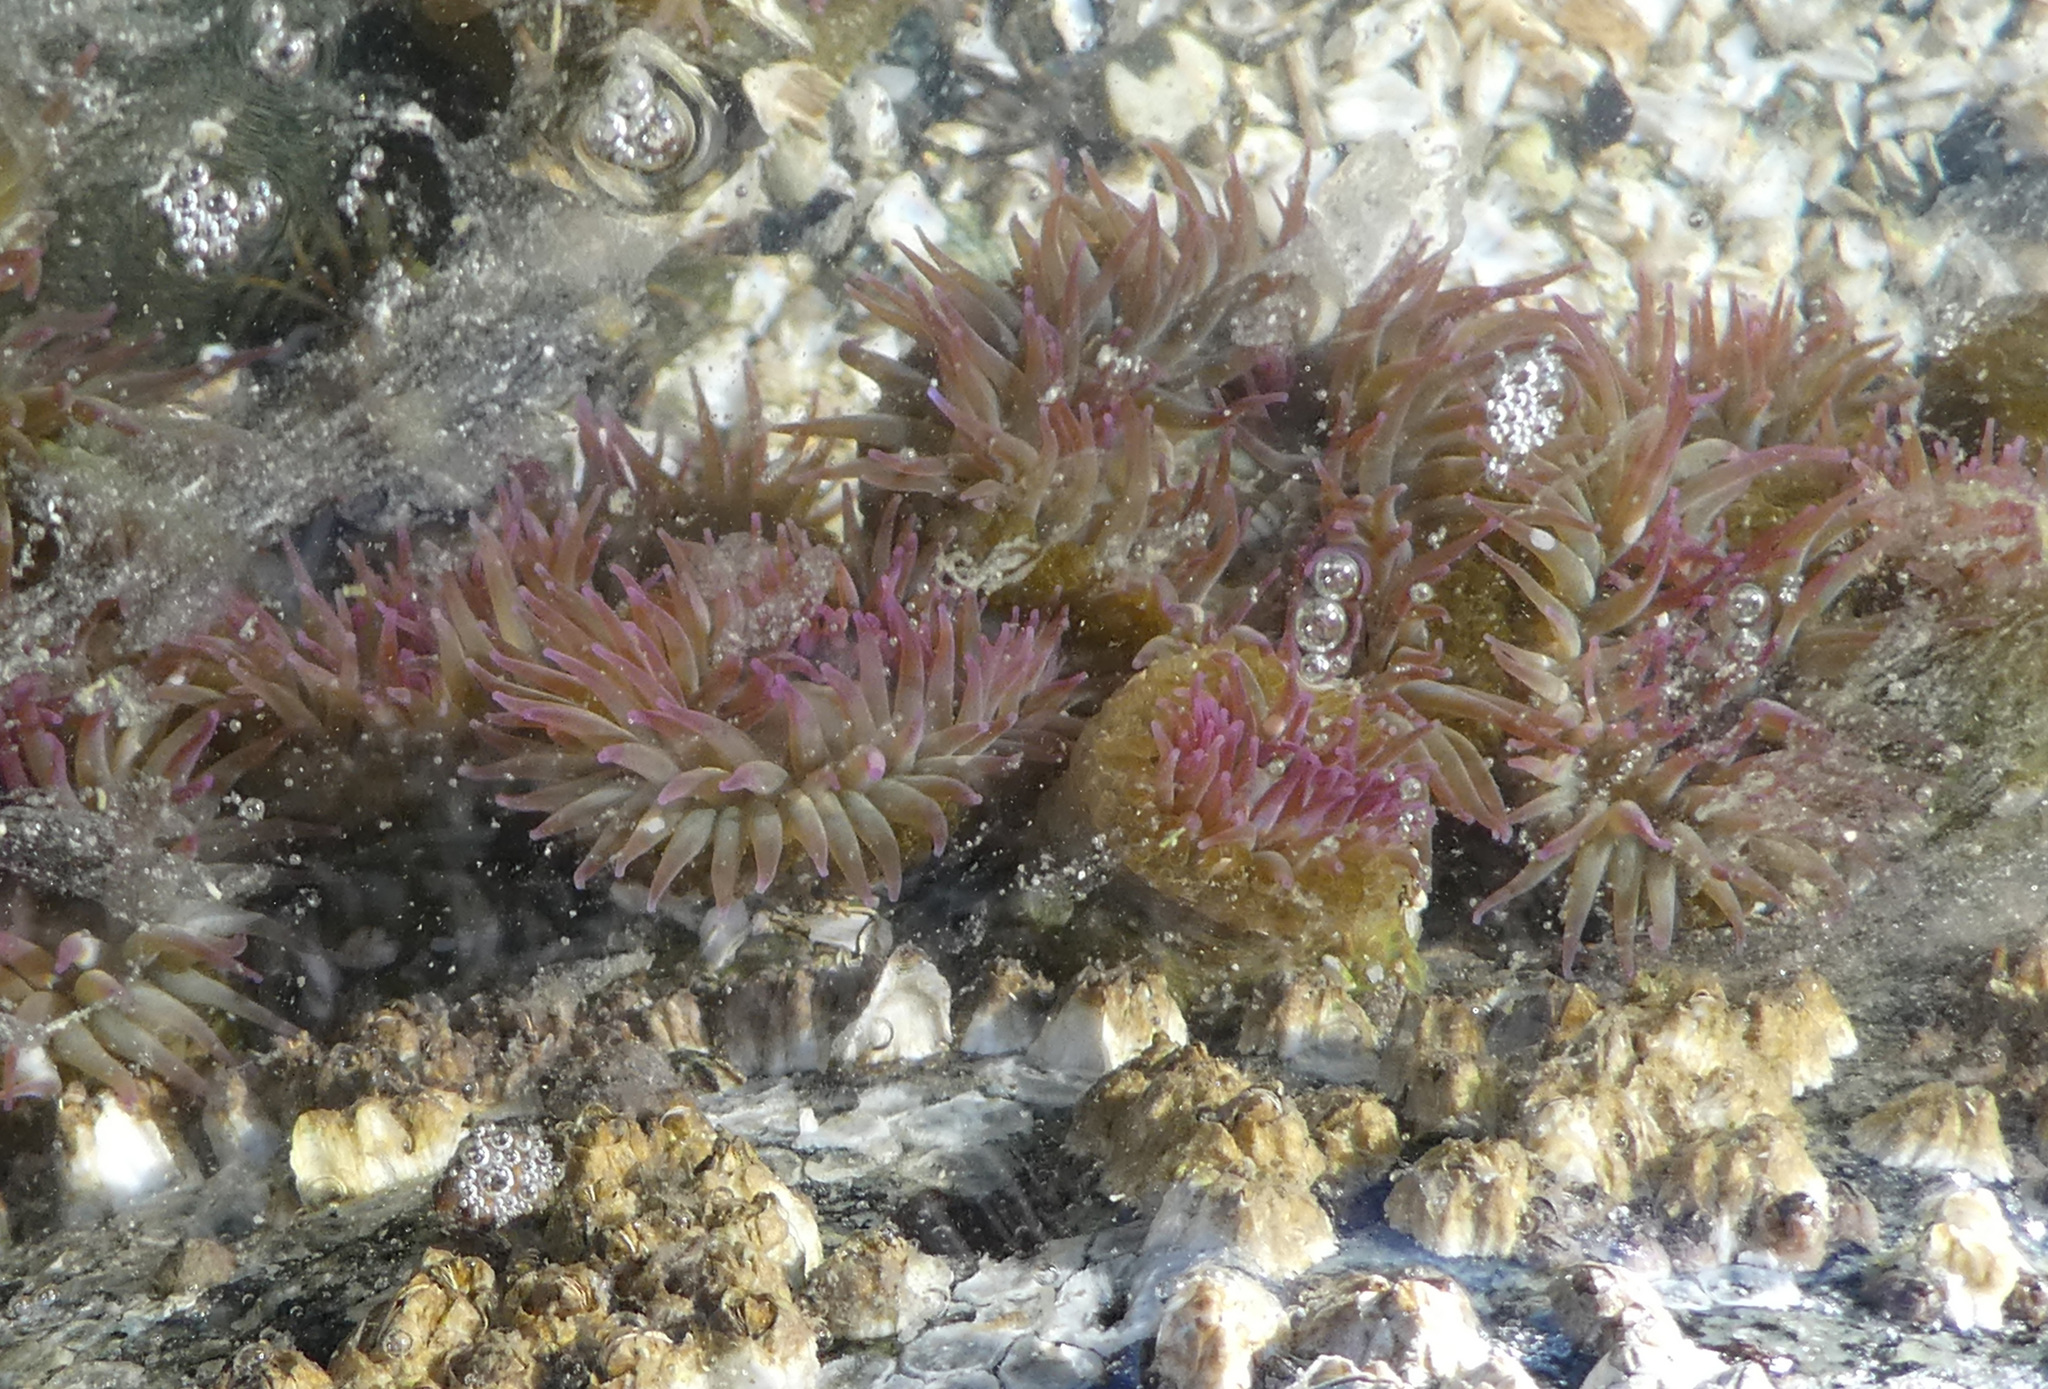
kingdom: Animalia
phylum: Cnidaria
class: Anthozoa
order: Actiniaria
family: Actiniidae
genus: Anthopleura
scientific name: Anthopleura elegantissima
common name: Clonal anemone
